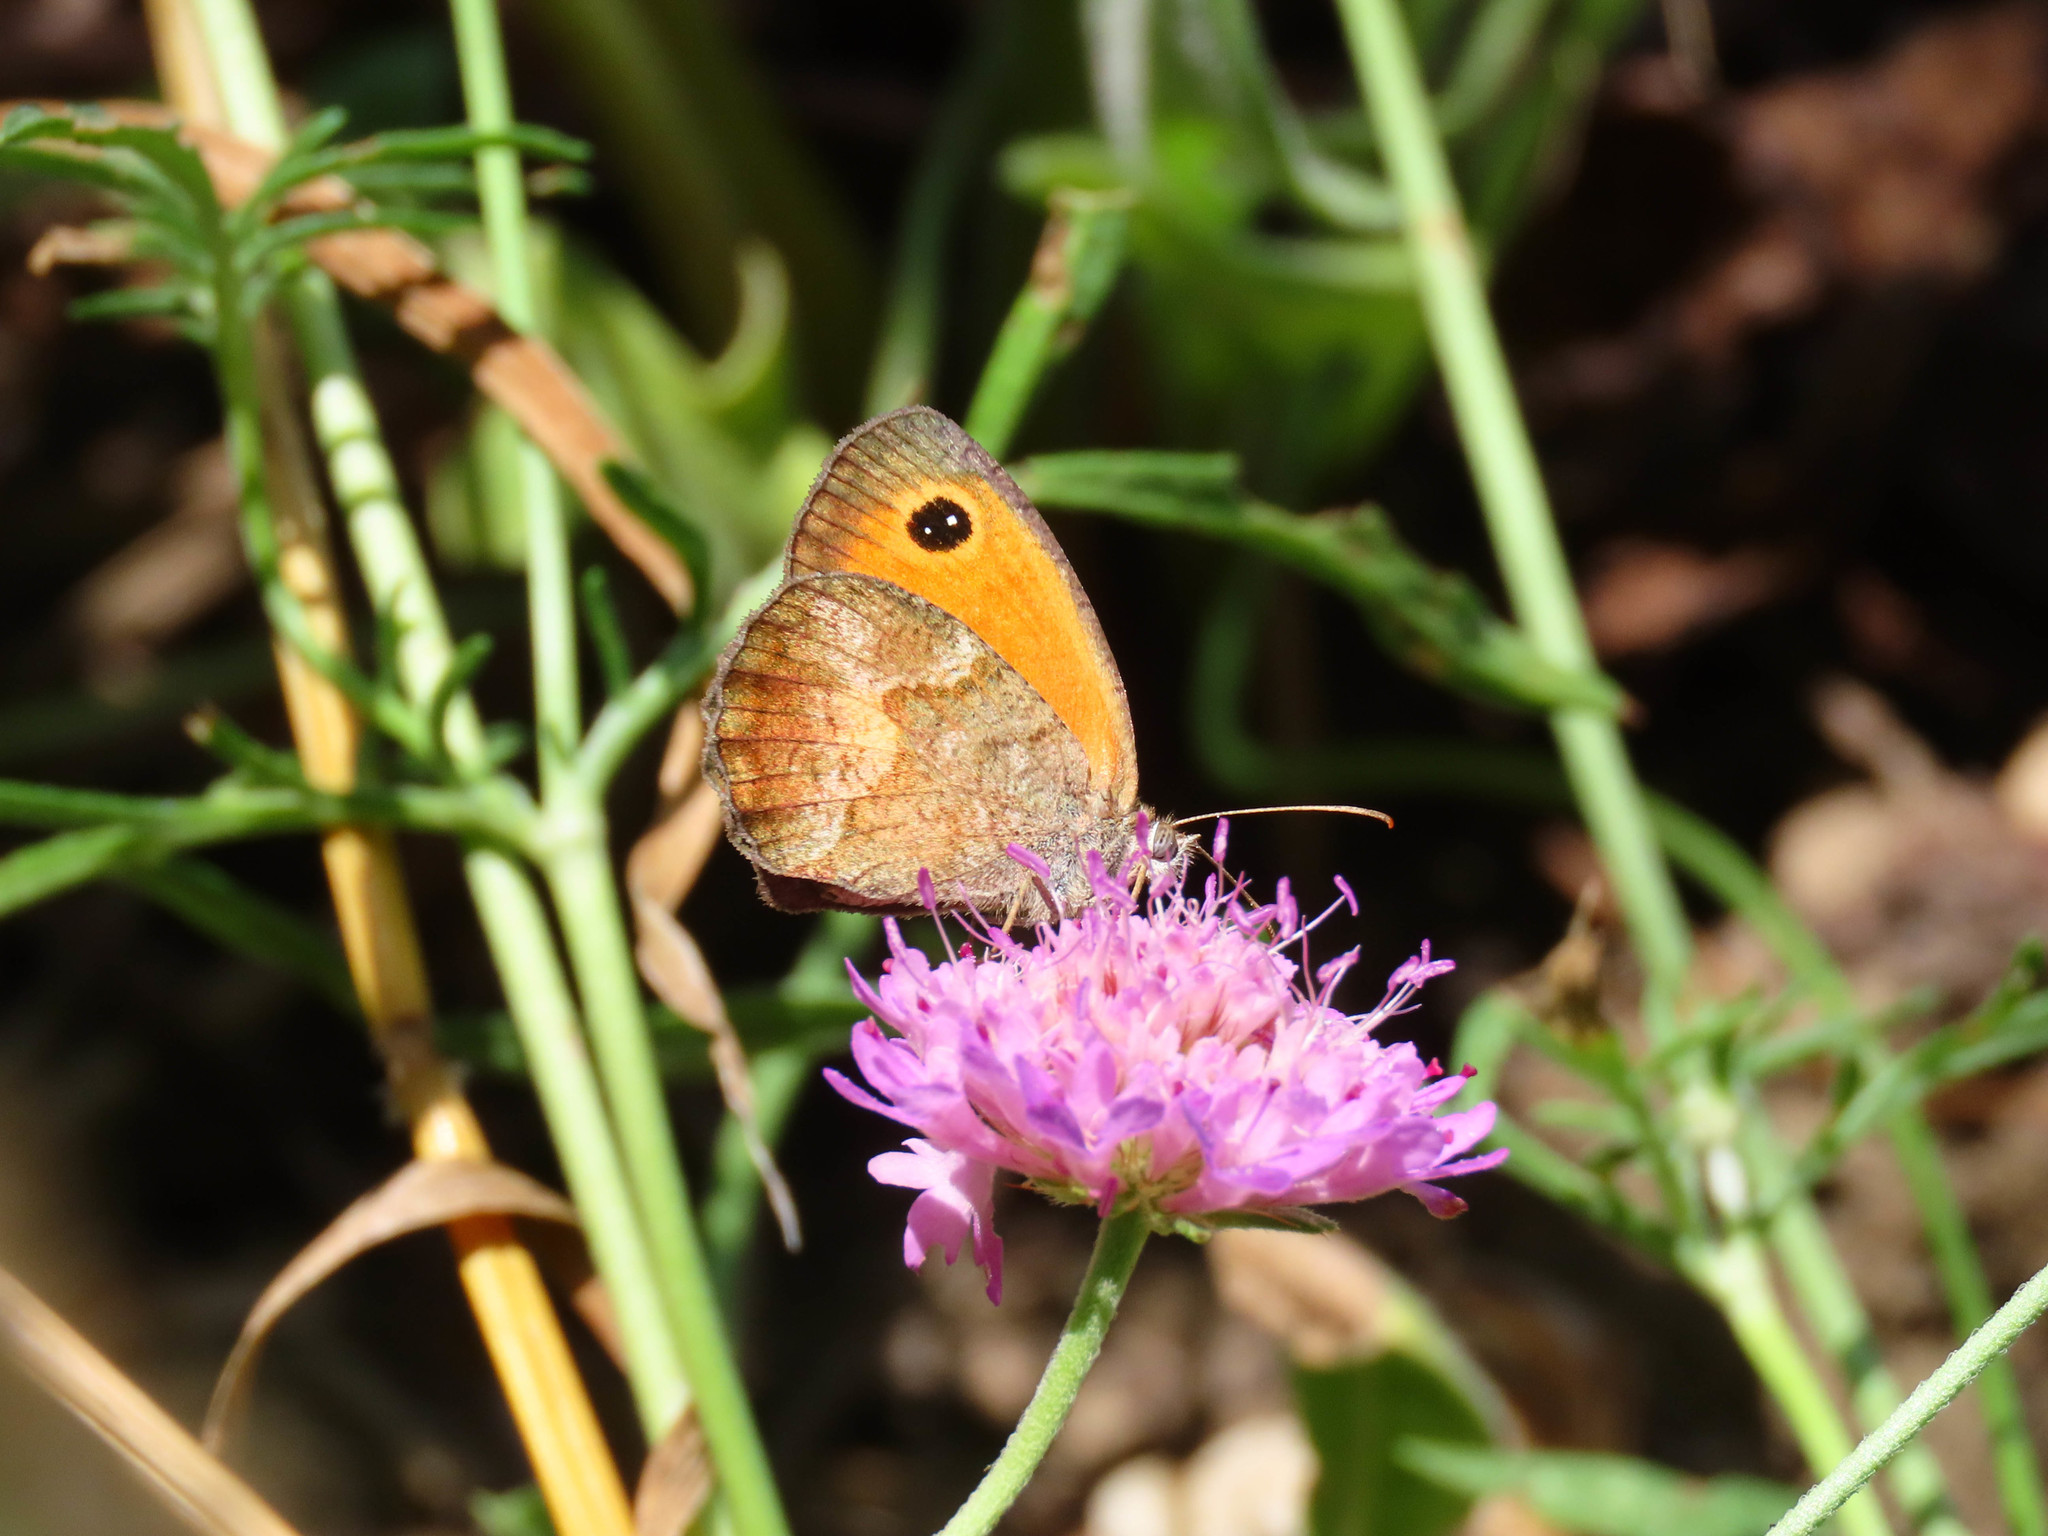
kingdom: Animalia
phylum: Arthropoda
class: Insecta
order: Lepidoptera
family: Nymphalidae
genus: Pyronia
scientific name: Pyronia cecilia
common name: Southern gatekeeper
